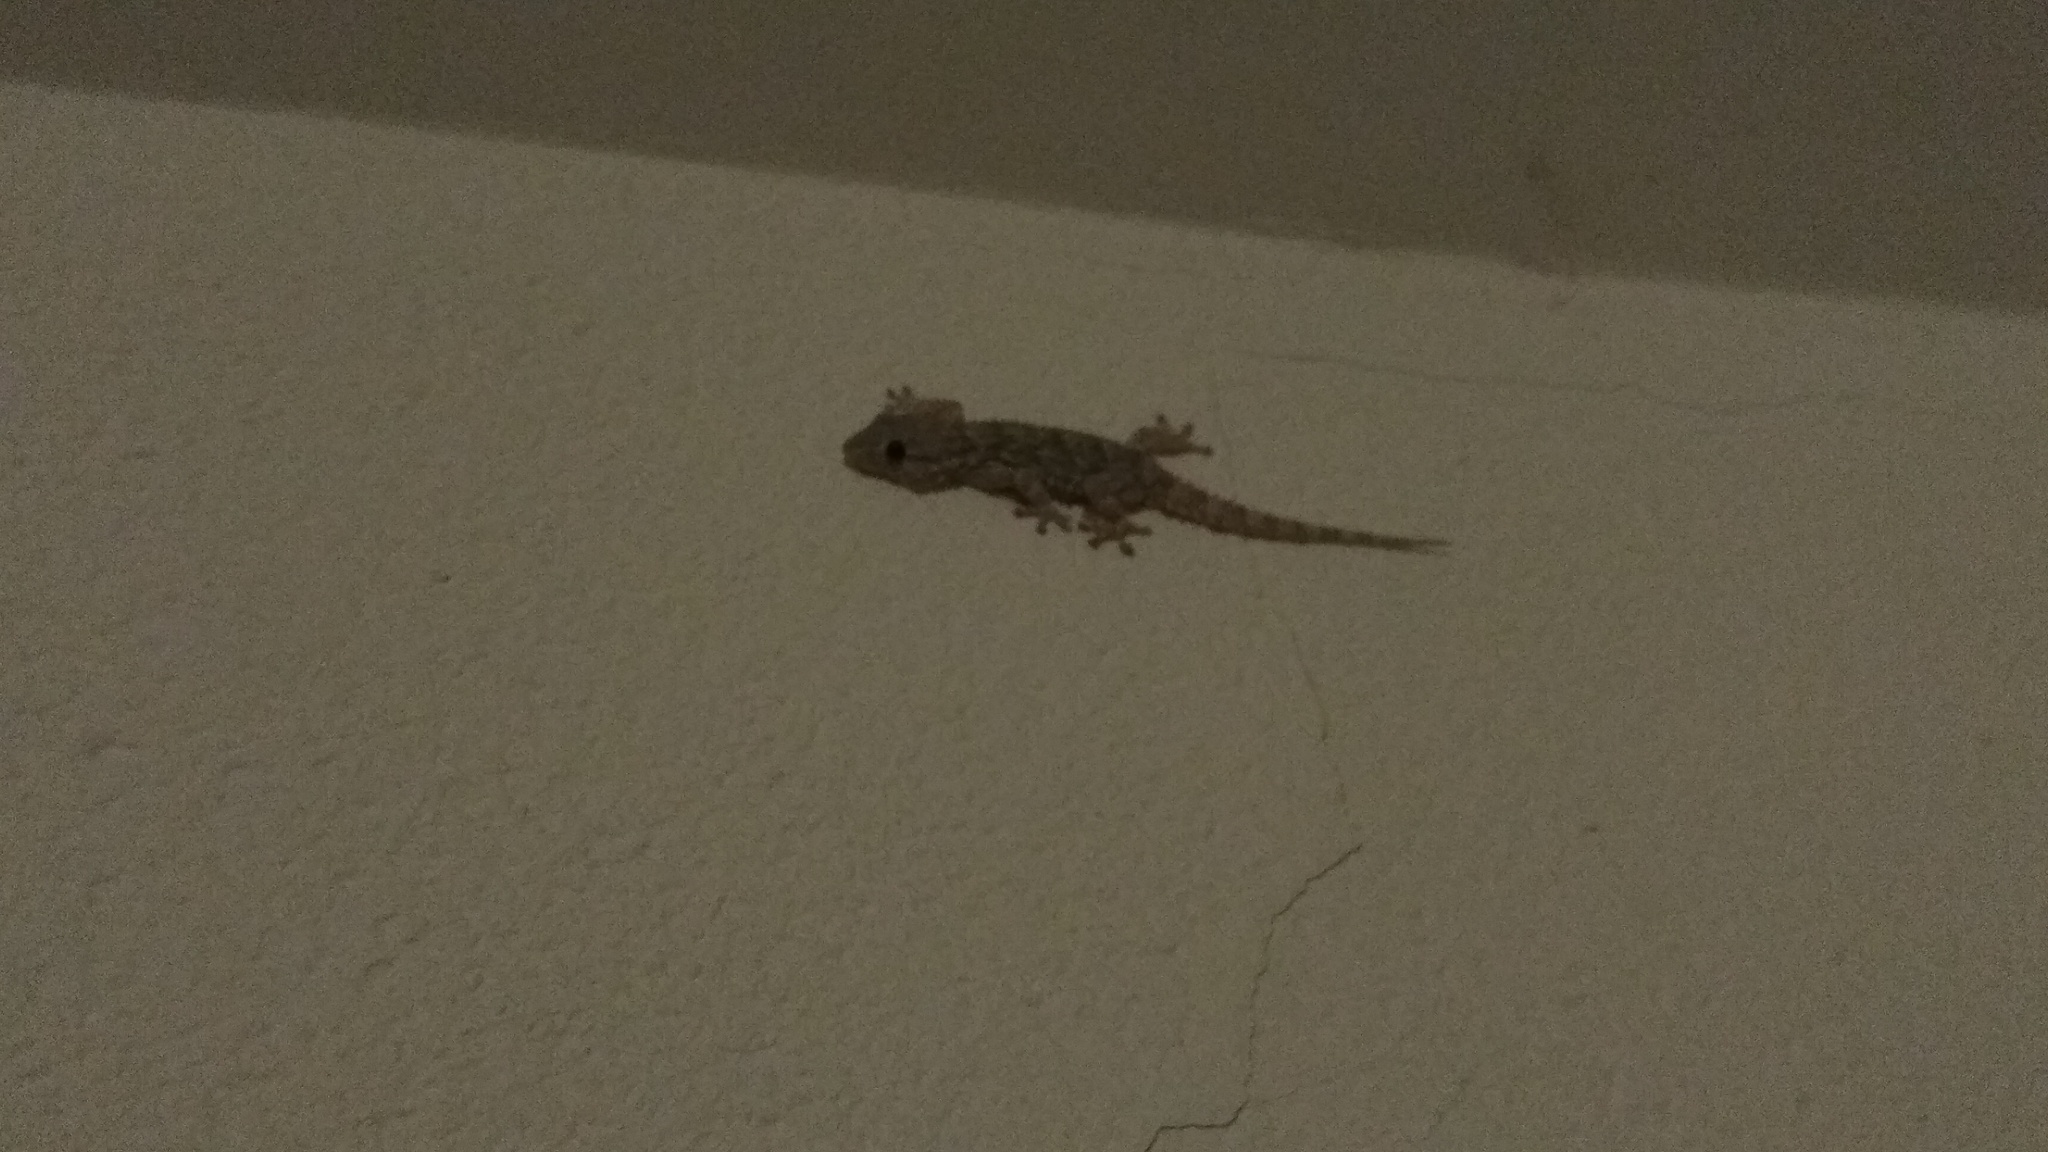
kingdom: Animalia
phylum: Chordata
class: Squamata
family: Phyllodactylidae
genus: Tarentola
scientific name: Tarentola mauritanica
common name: Moorish gecko
